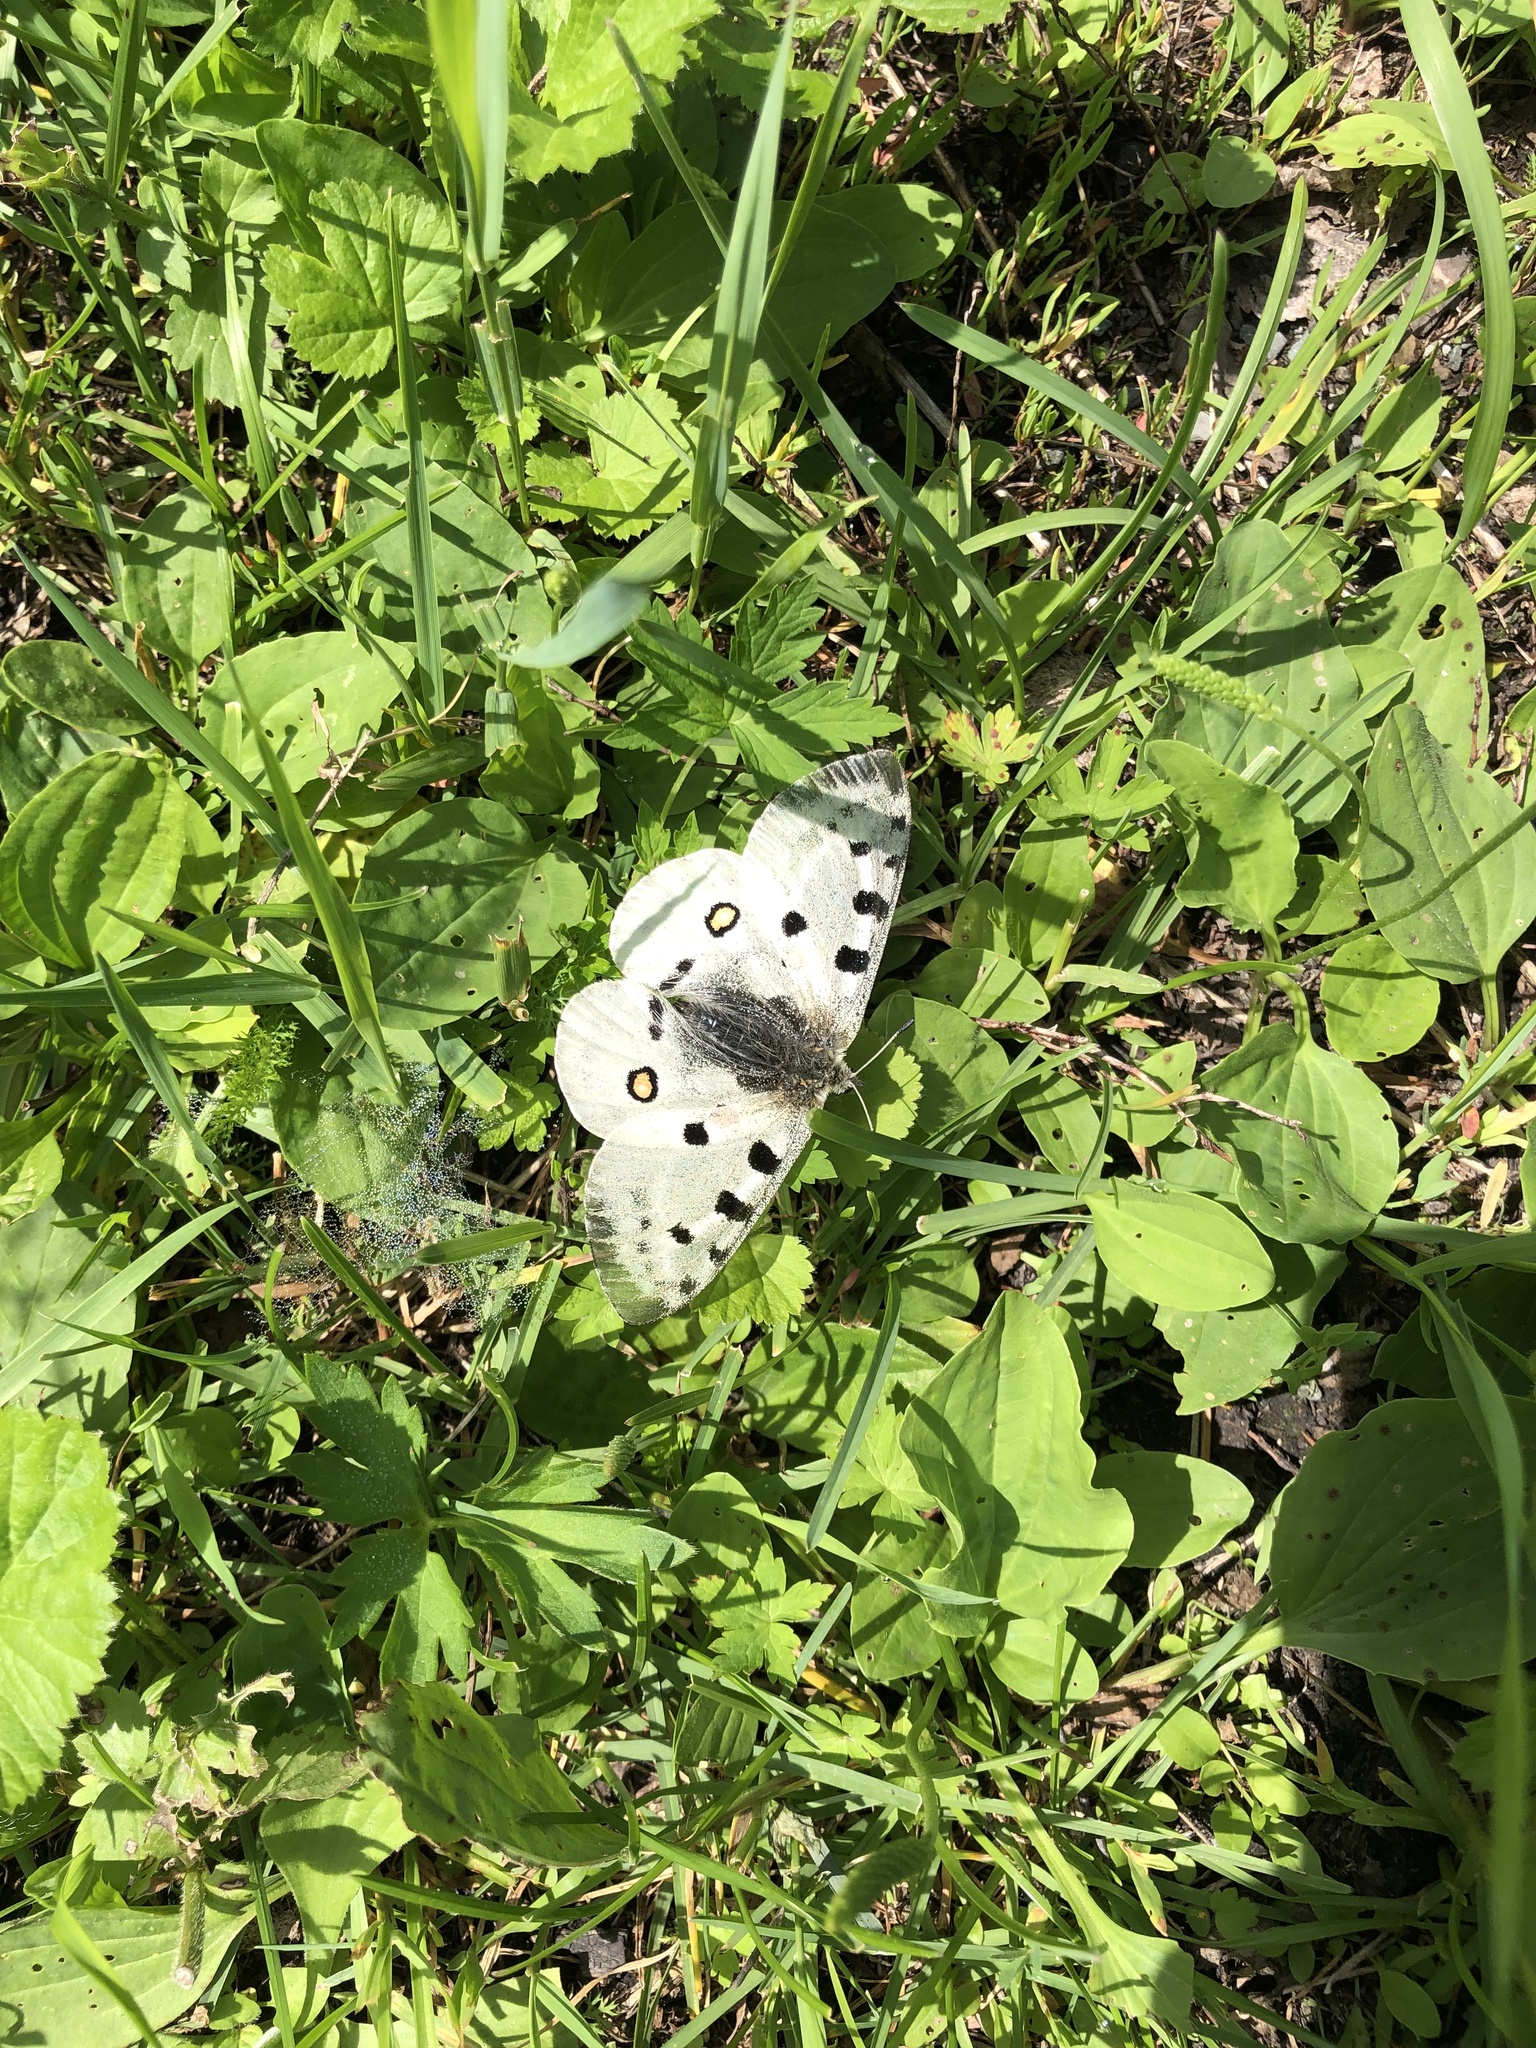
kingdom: Animalia
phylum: Arthropoda
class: Insecta
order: Lepidoptera
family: Papilionidae
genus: Parnassius
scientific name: Parnassius apollo
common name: Apollo
